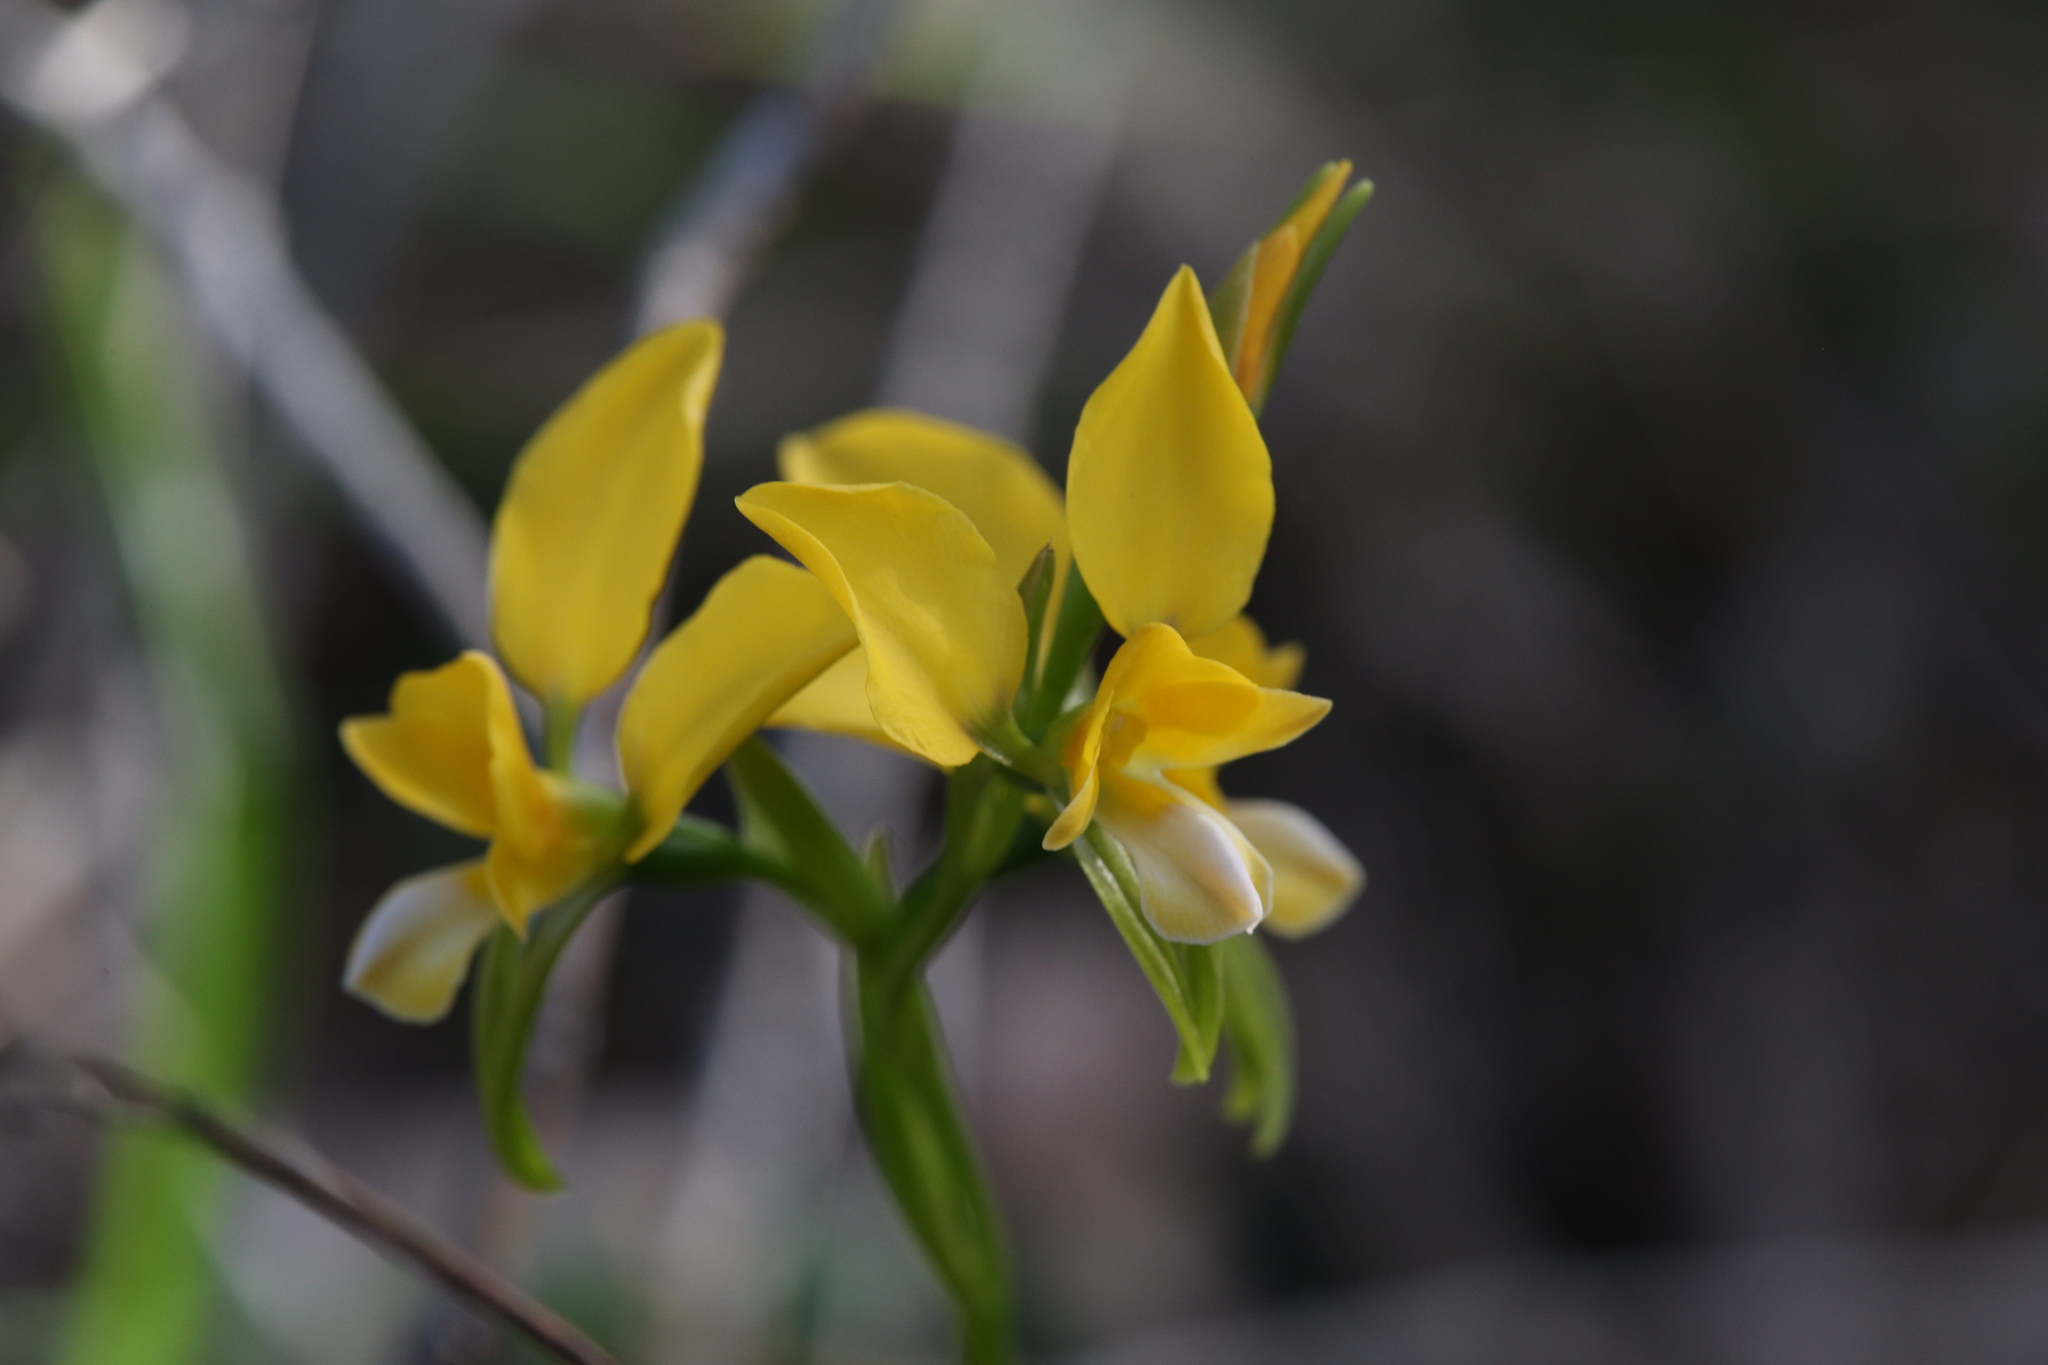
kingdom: Plantae
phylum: Tracheophyta
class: Liliopsida
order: Asparagales
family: Orchidaceae
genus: Diuris
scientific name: Diuris magnifica
